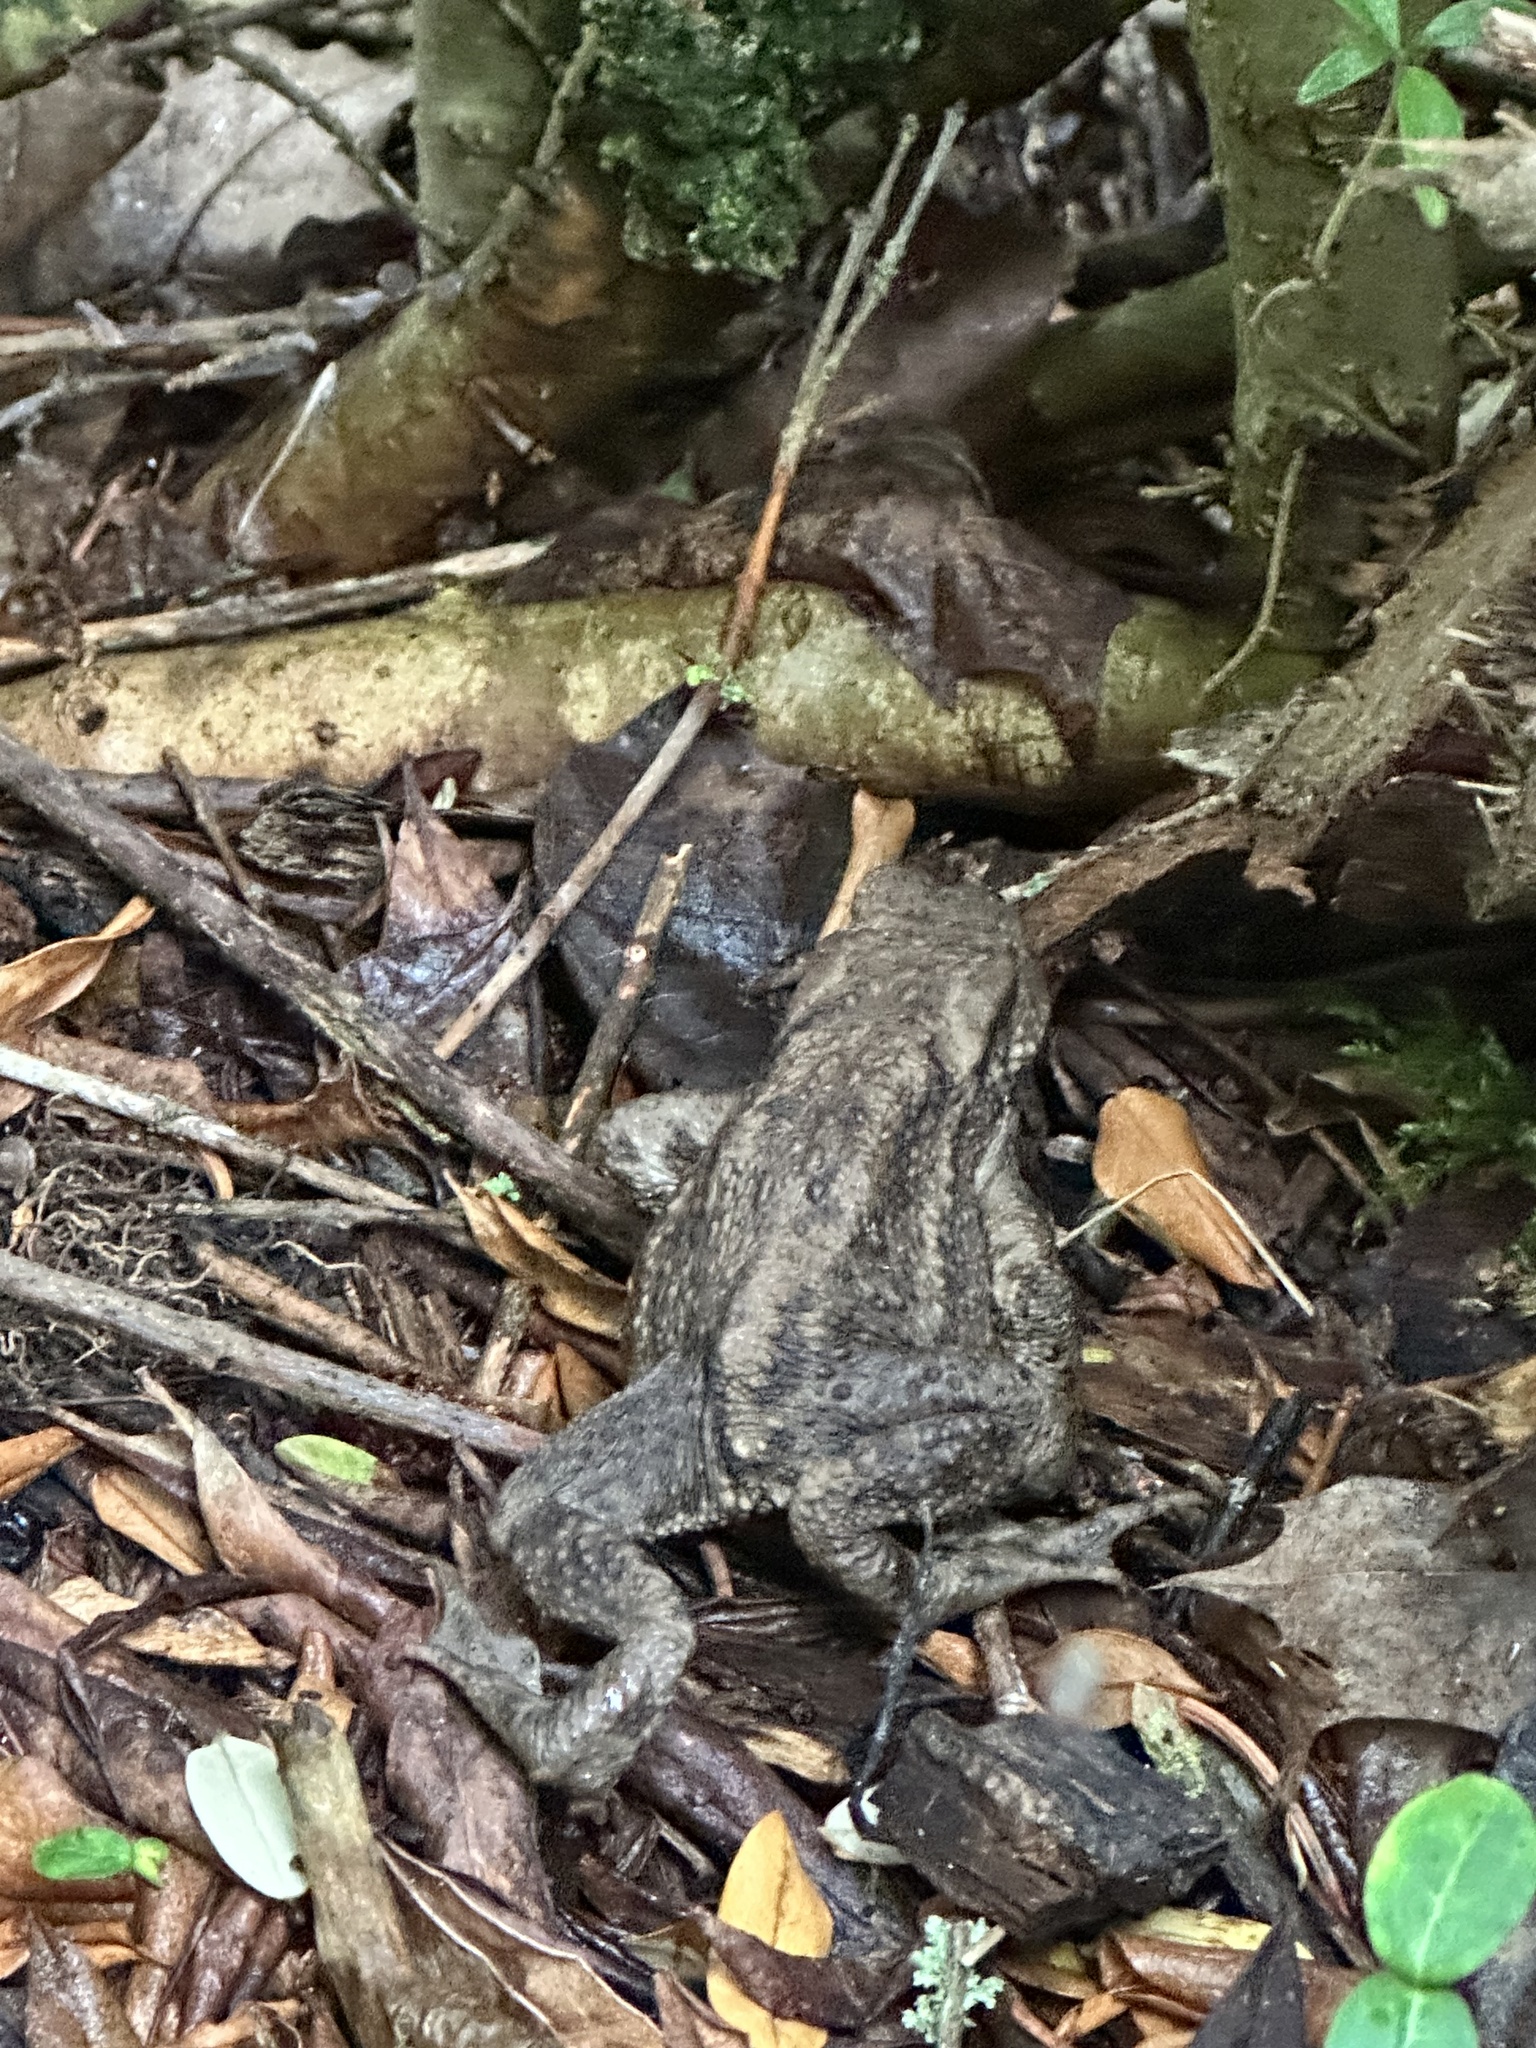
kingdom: Animalia
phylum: Chordata
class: Amphibia
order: Anura
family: Bufonidae
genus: Bufo
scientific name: Bufo bufo
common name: Common toad
